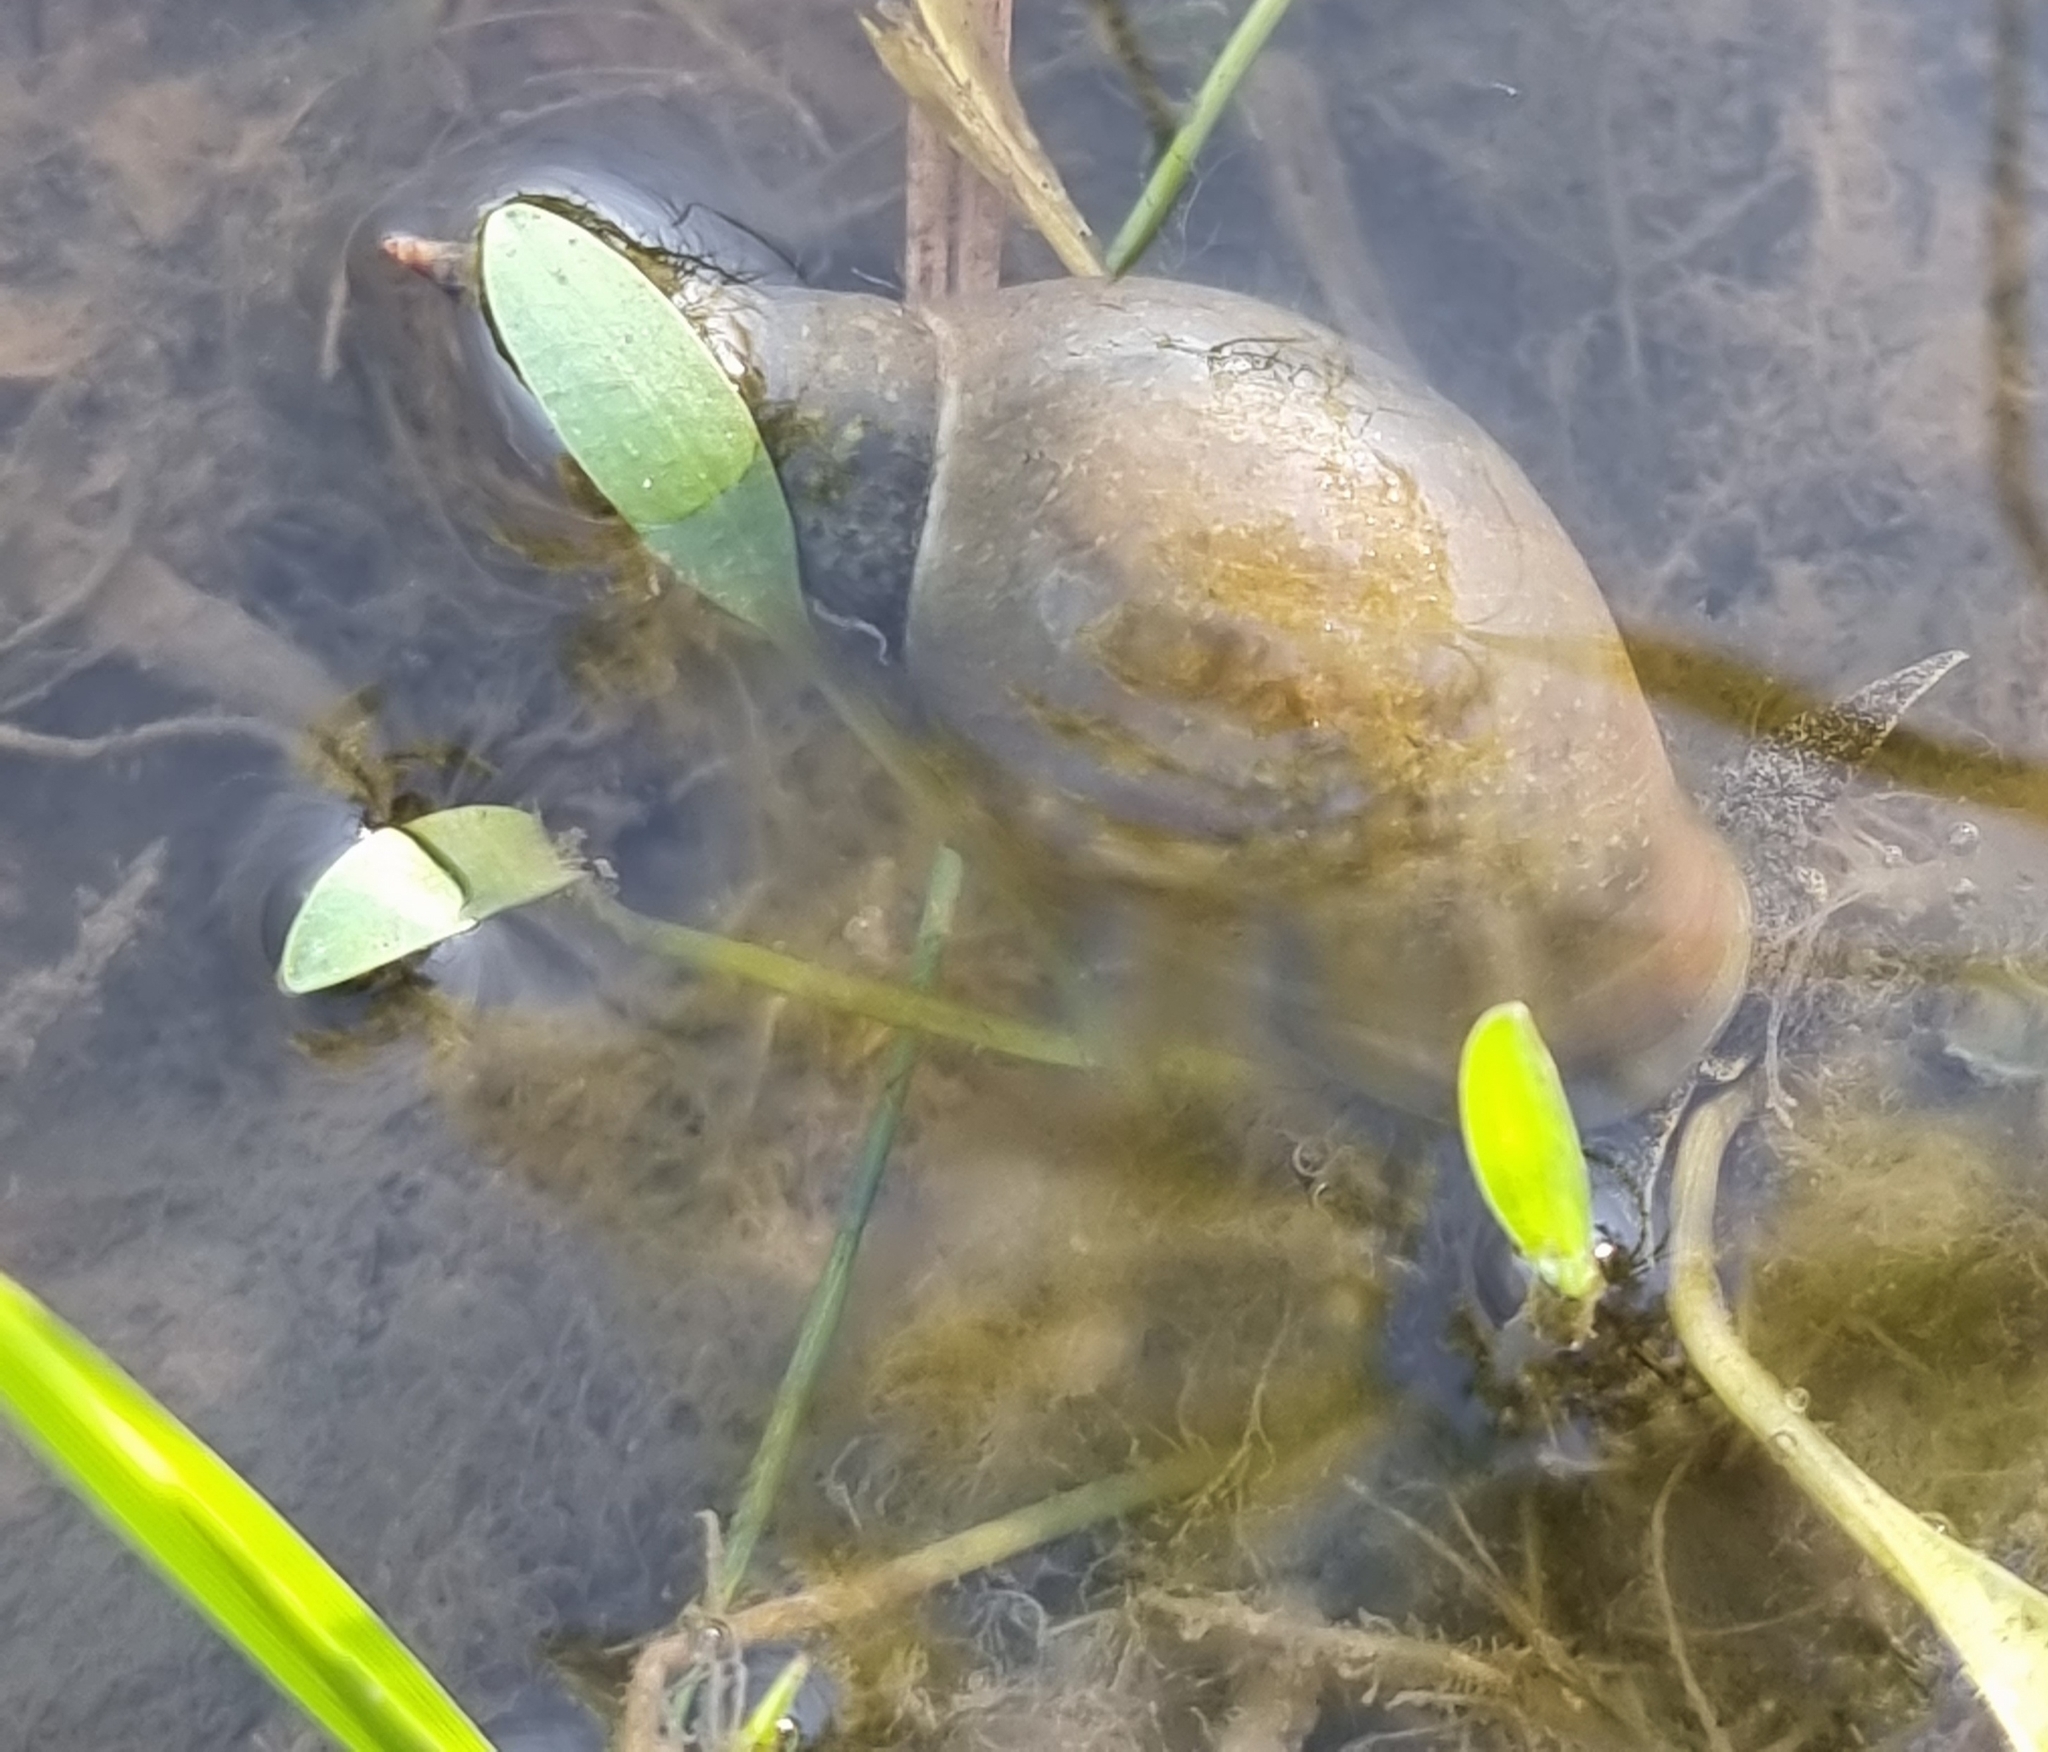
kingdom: Animalia
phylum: Mollusca
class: Gastropoda
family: Lymnaeidae
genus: Lymnaea
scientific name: Lymnaea stagnalis
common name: Great pond snail
